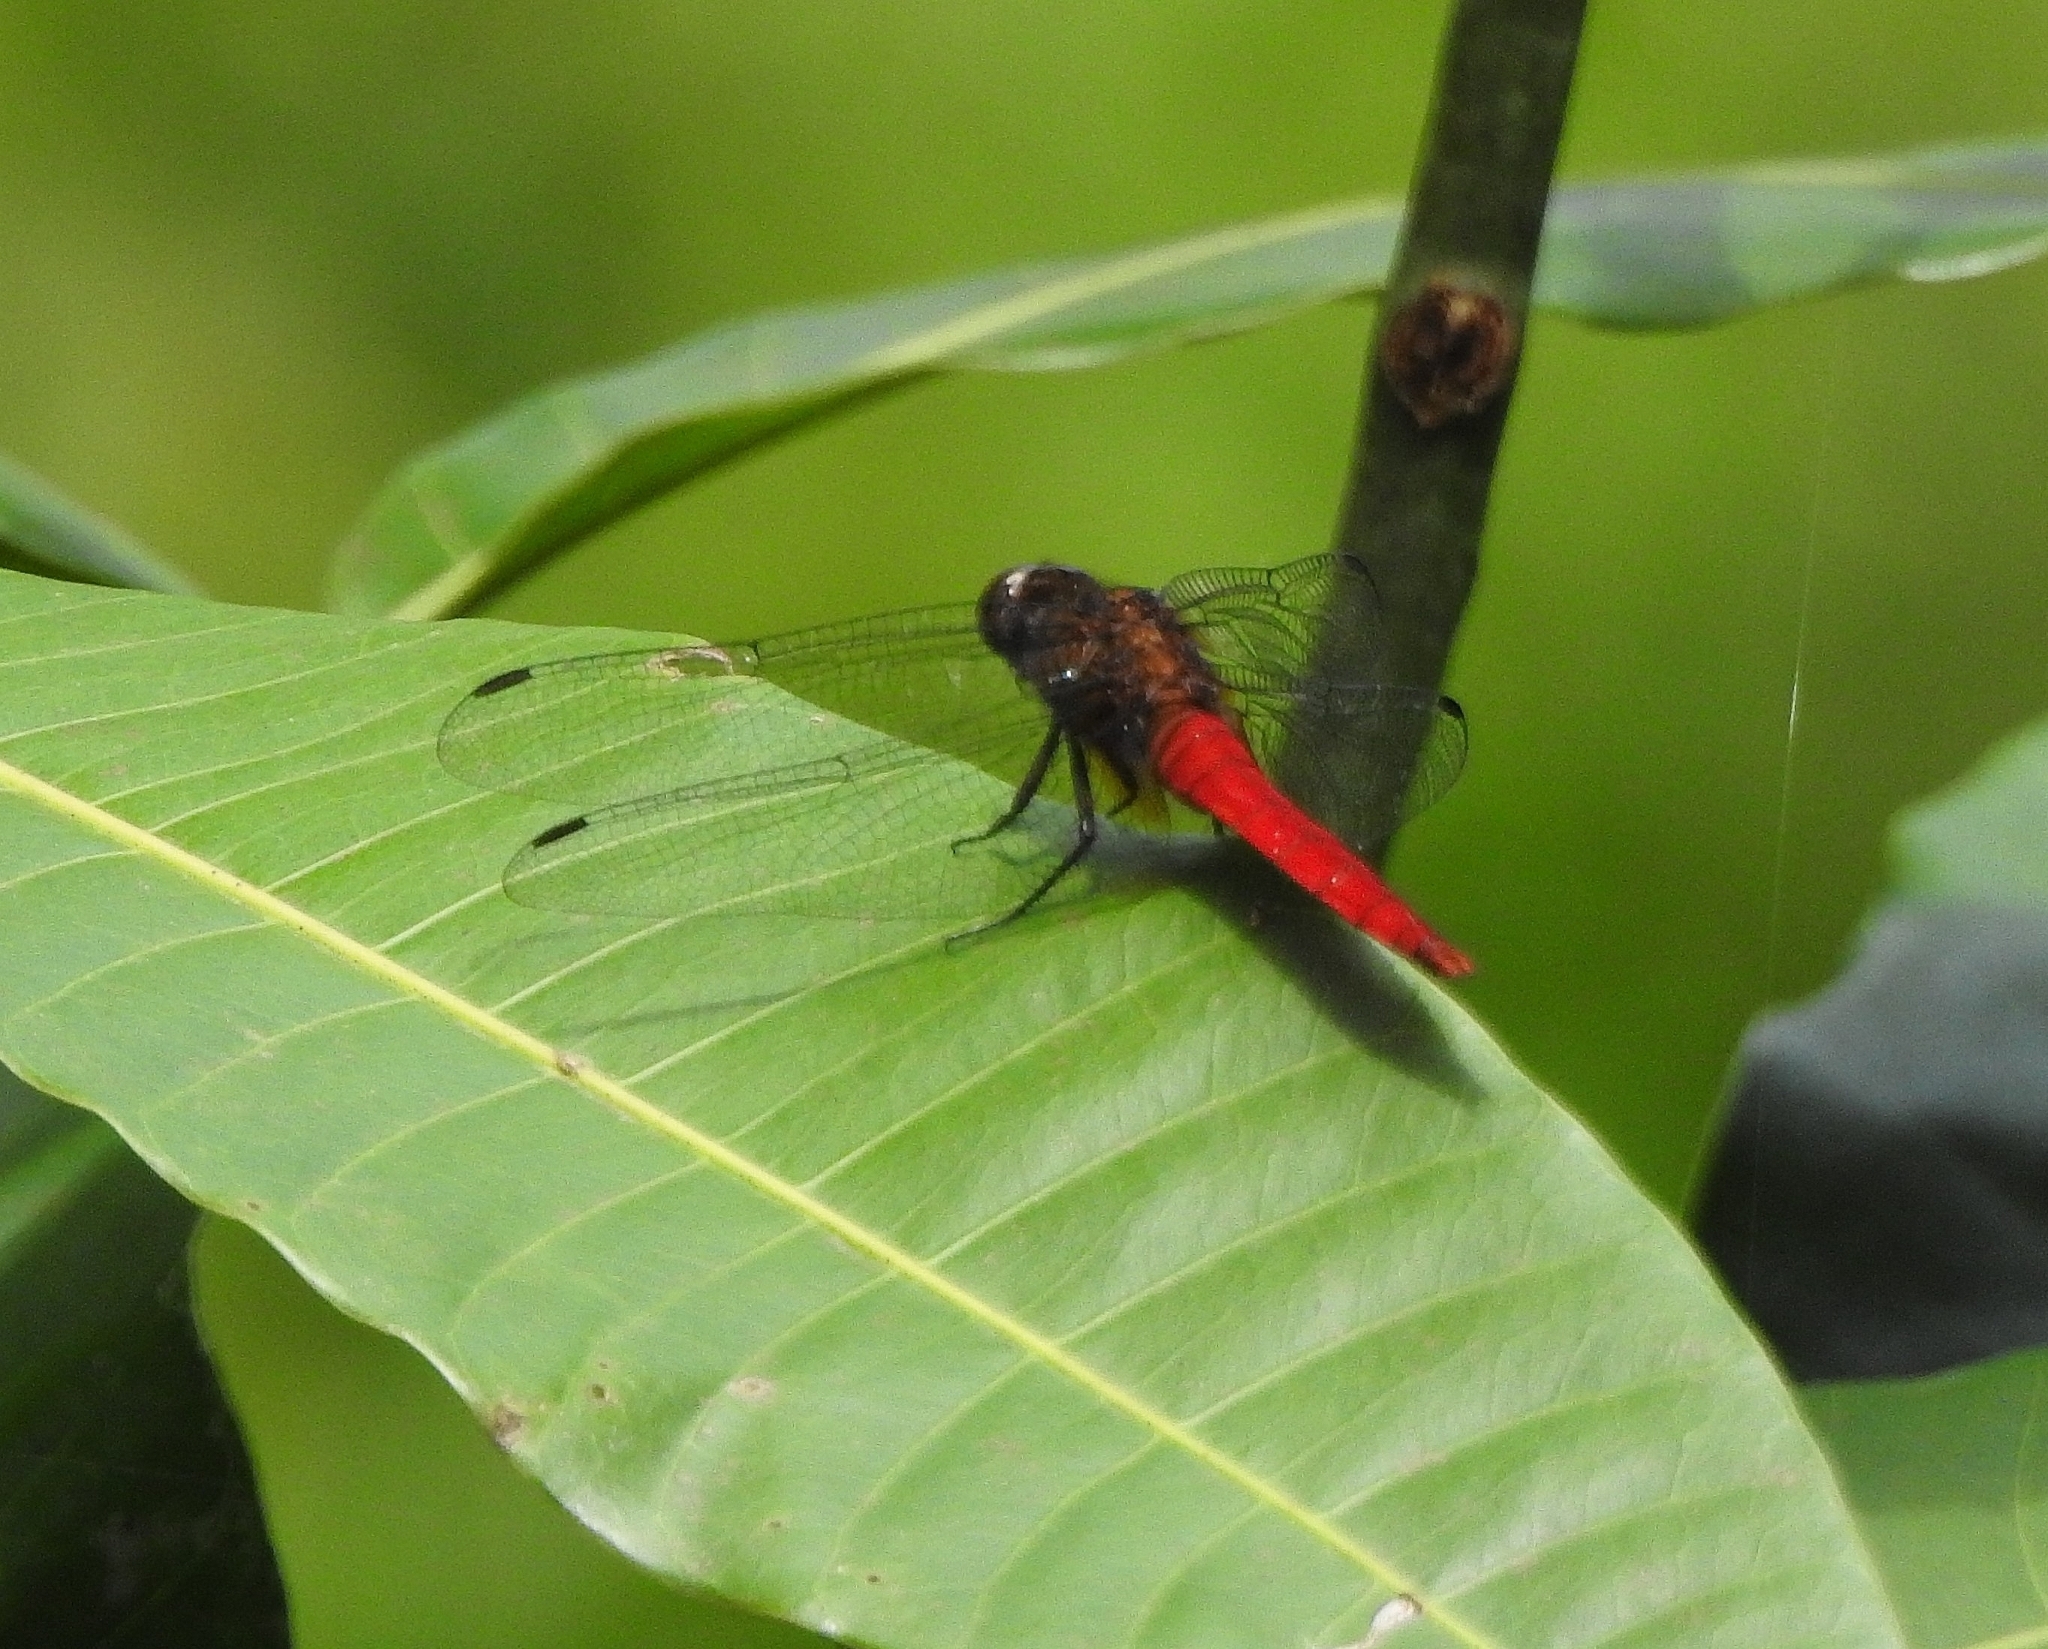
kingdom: Animalia
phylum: Arthropoda
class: Insecta
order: Odonata
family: Libellulidae
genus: Orthetrum
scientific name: Orthetrum chrysis
